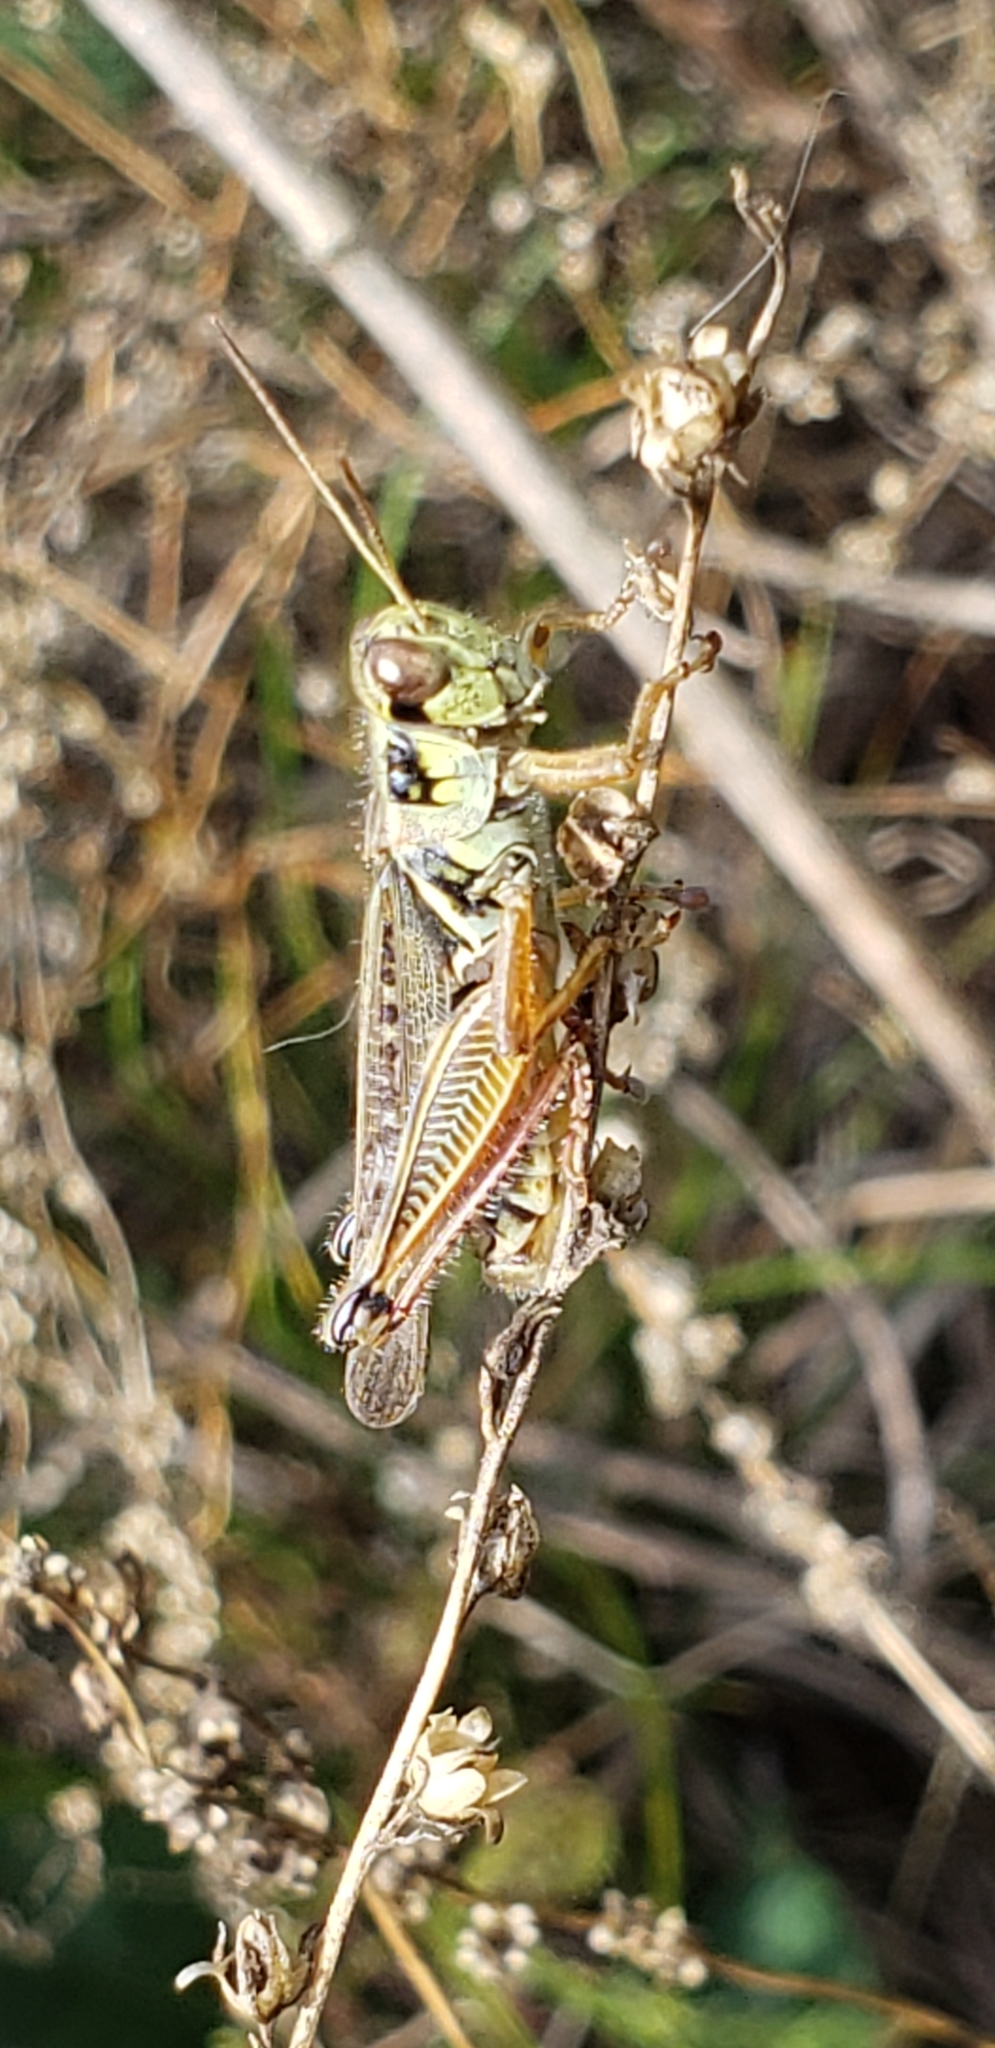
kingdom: Animalia
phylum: Arthropoda
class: Insecta
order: Orthoptera
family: Acrididae
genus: Melanoplus
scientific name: Melanoplus femurrubrum
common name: Red-legged grasshopper
